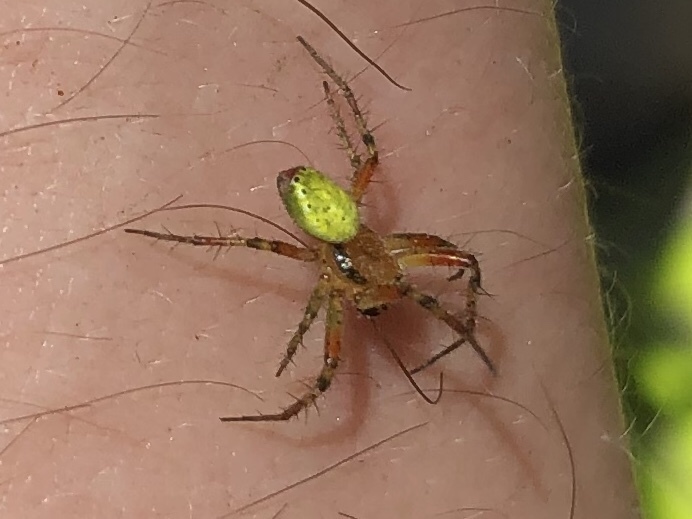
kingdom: Animalia
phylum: Arthropoda
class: Arachnida
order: Araneae
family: Araneidae
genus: Araniella
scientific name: Araniella cucurbitina
